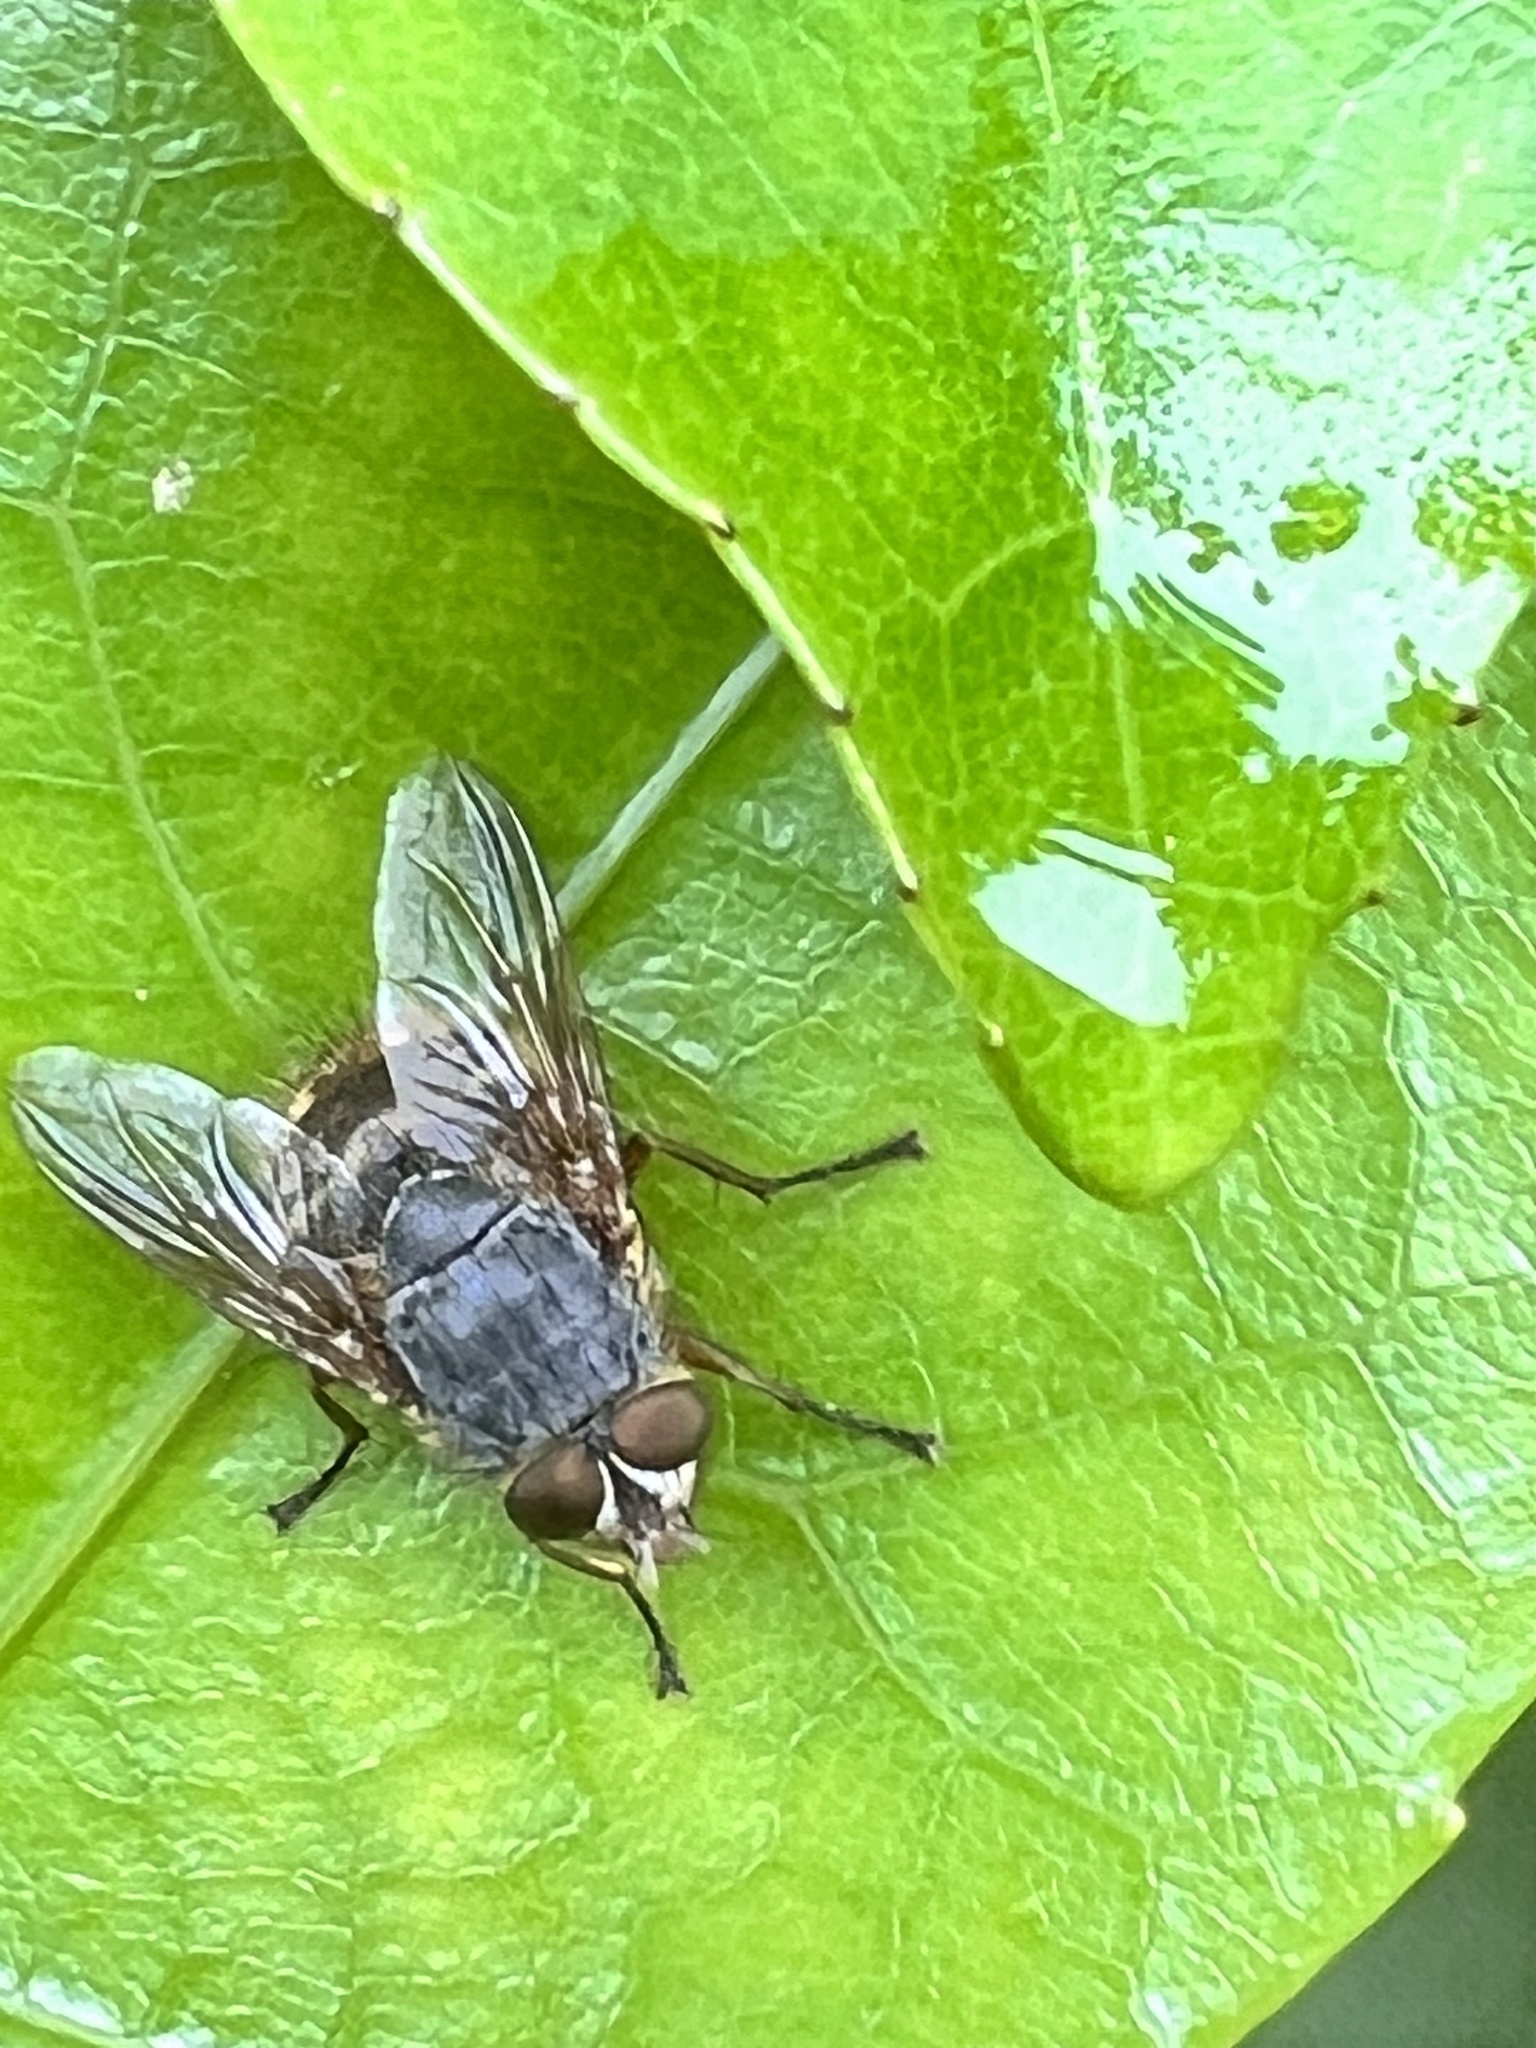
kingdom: Animalia
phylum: Arthropoda
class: Insecta
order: Diptera
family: Calliphoridae
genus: Calliphora
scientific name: Calliphora hilli
